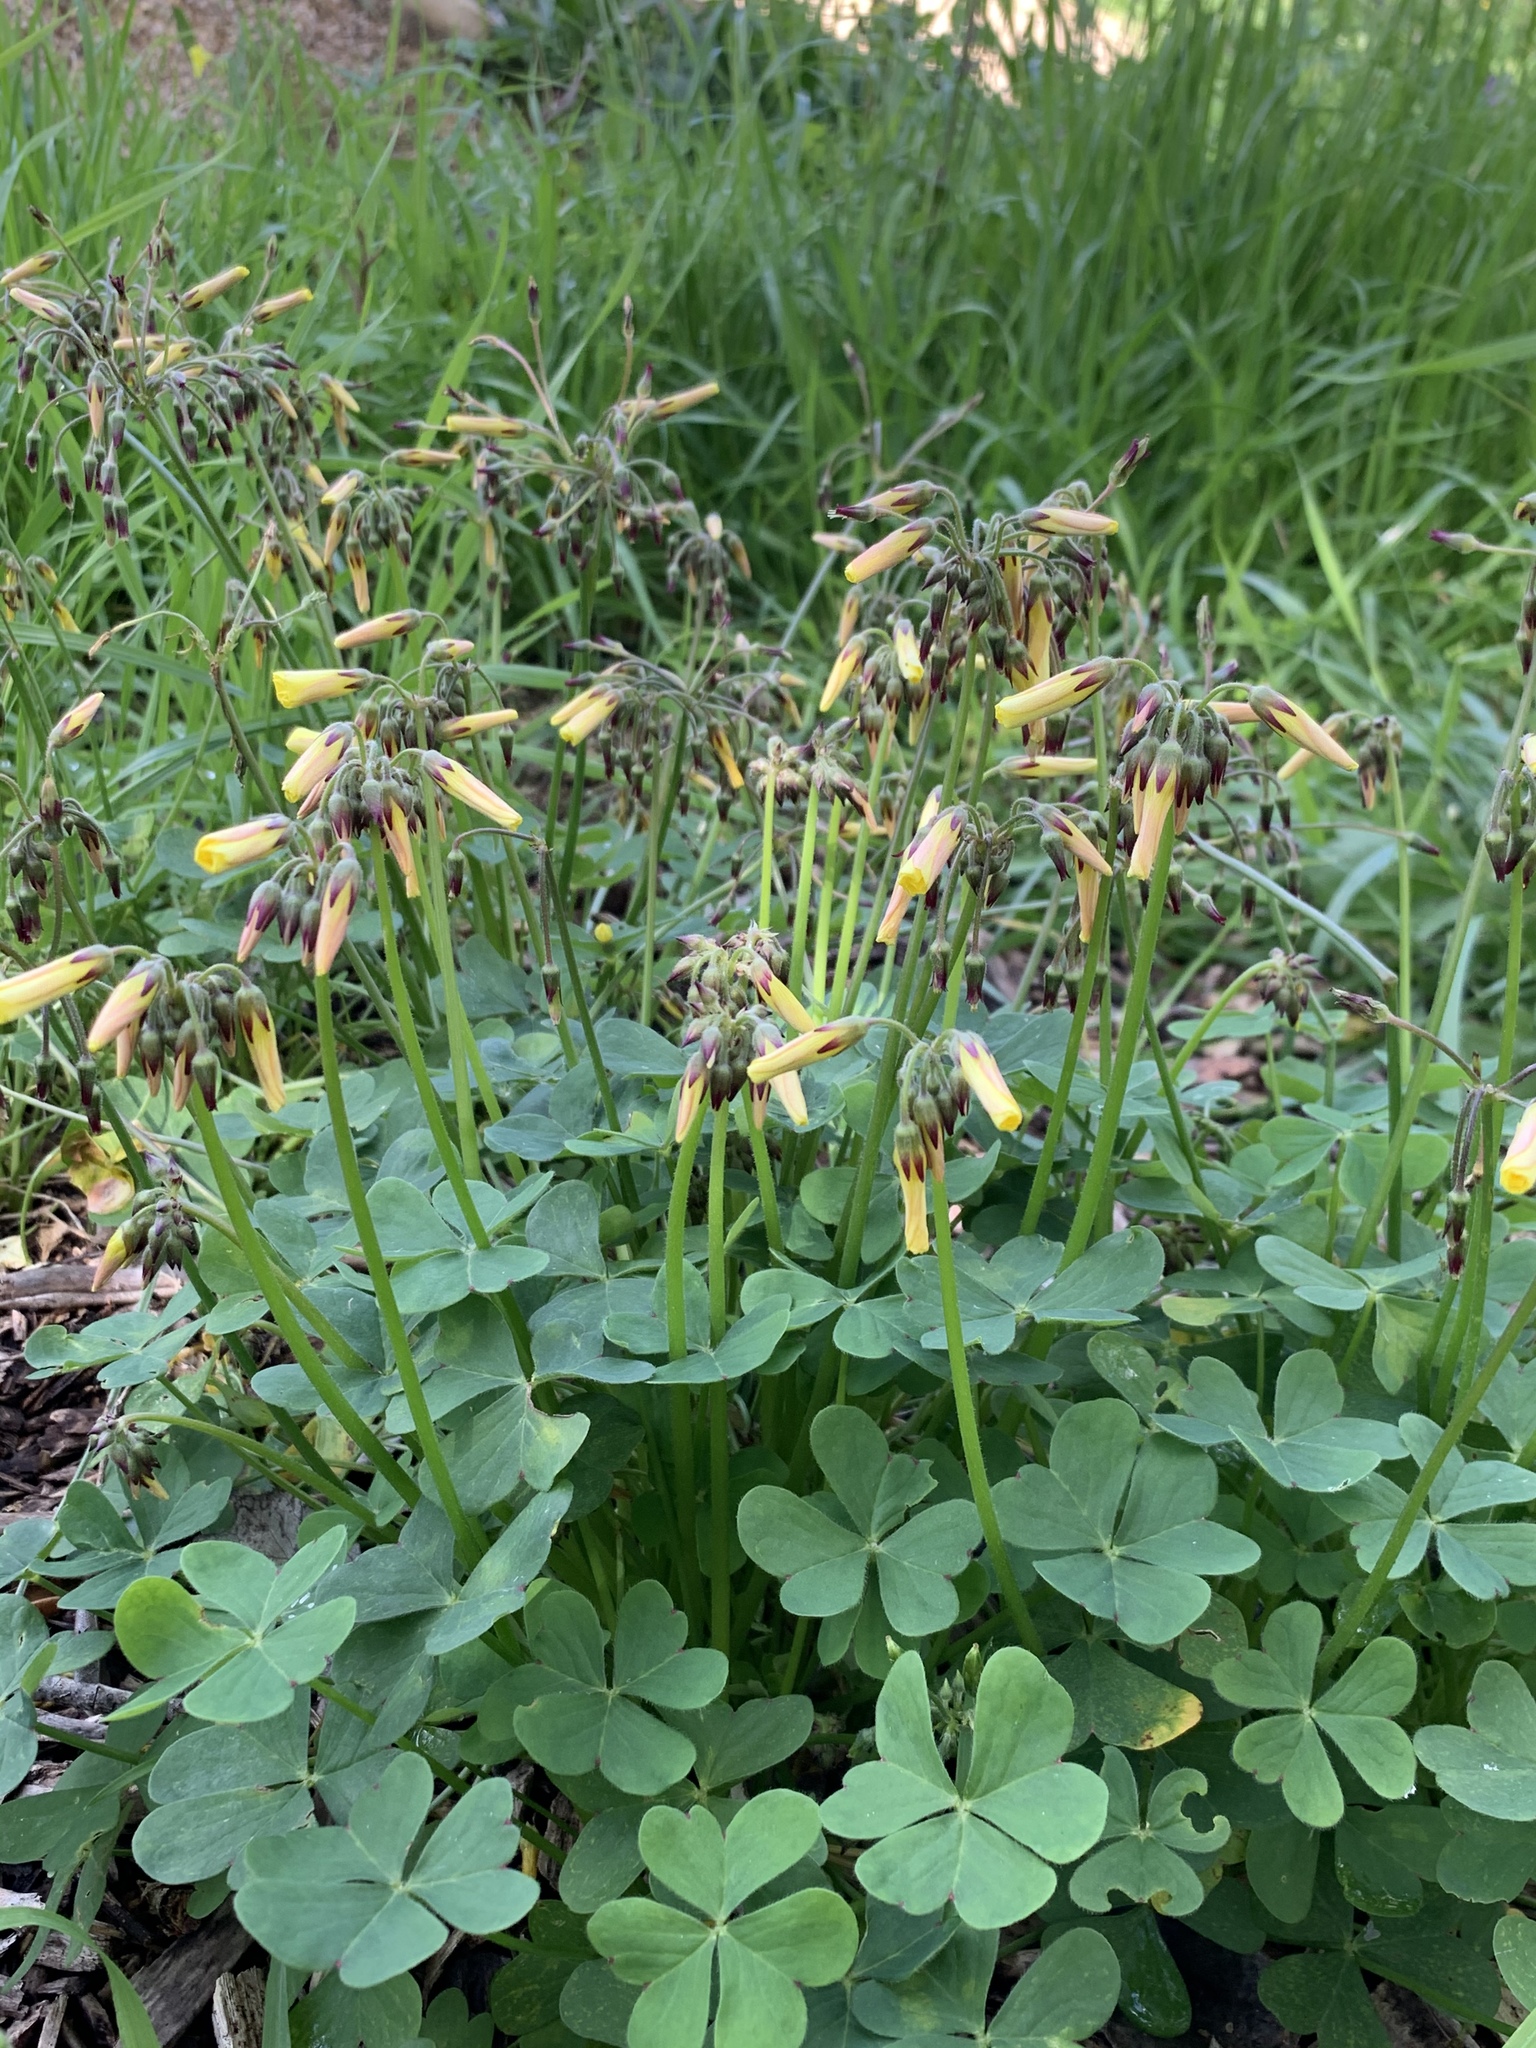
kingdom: Plantae
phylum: Tracheophyta
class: Magnoliopsida
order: Oxalidales
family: Oxalidaceae
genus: Oxalis
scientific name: Oxalis pes-caprae
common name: Bermuda-buttercup
